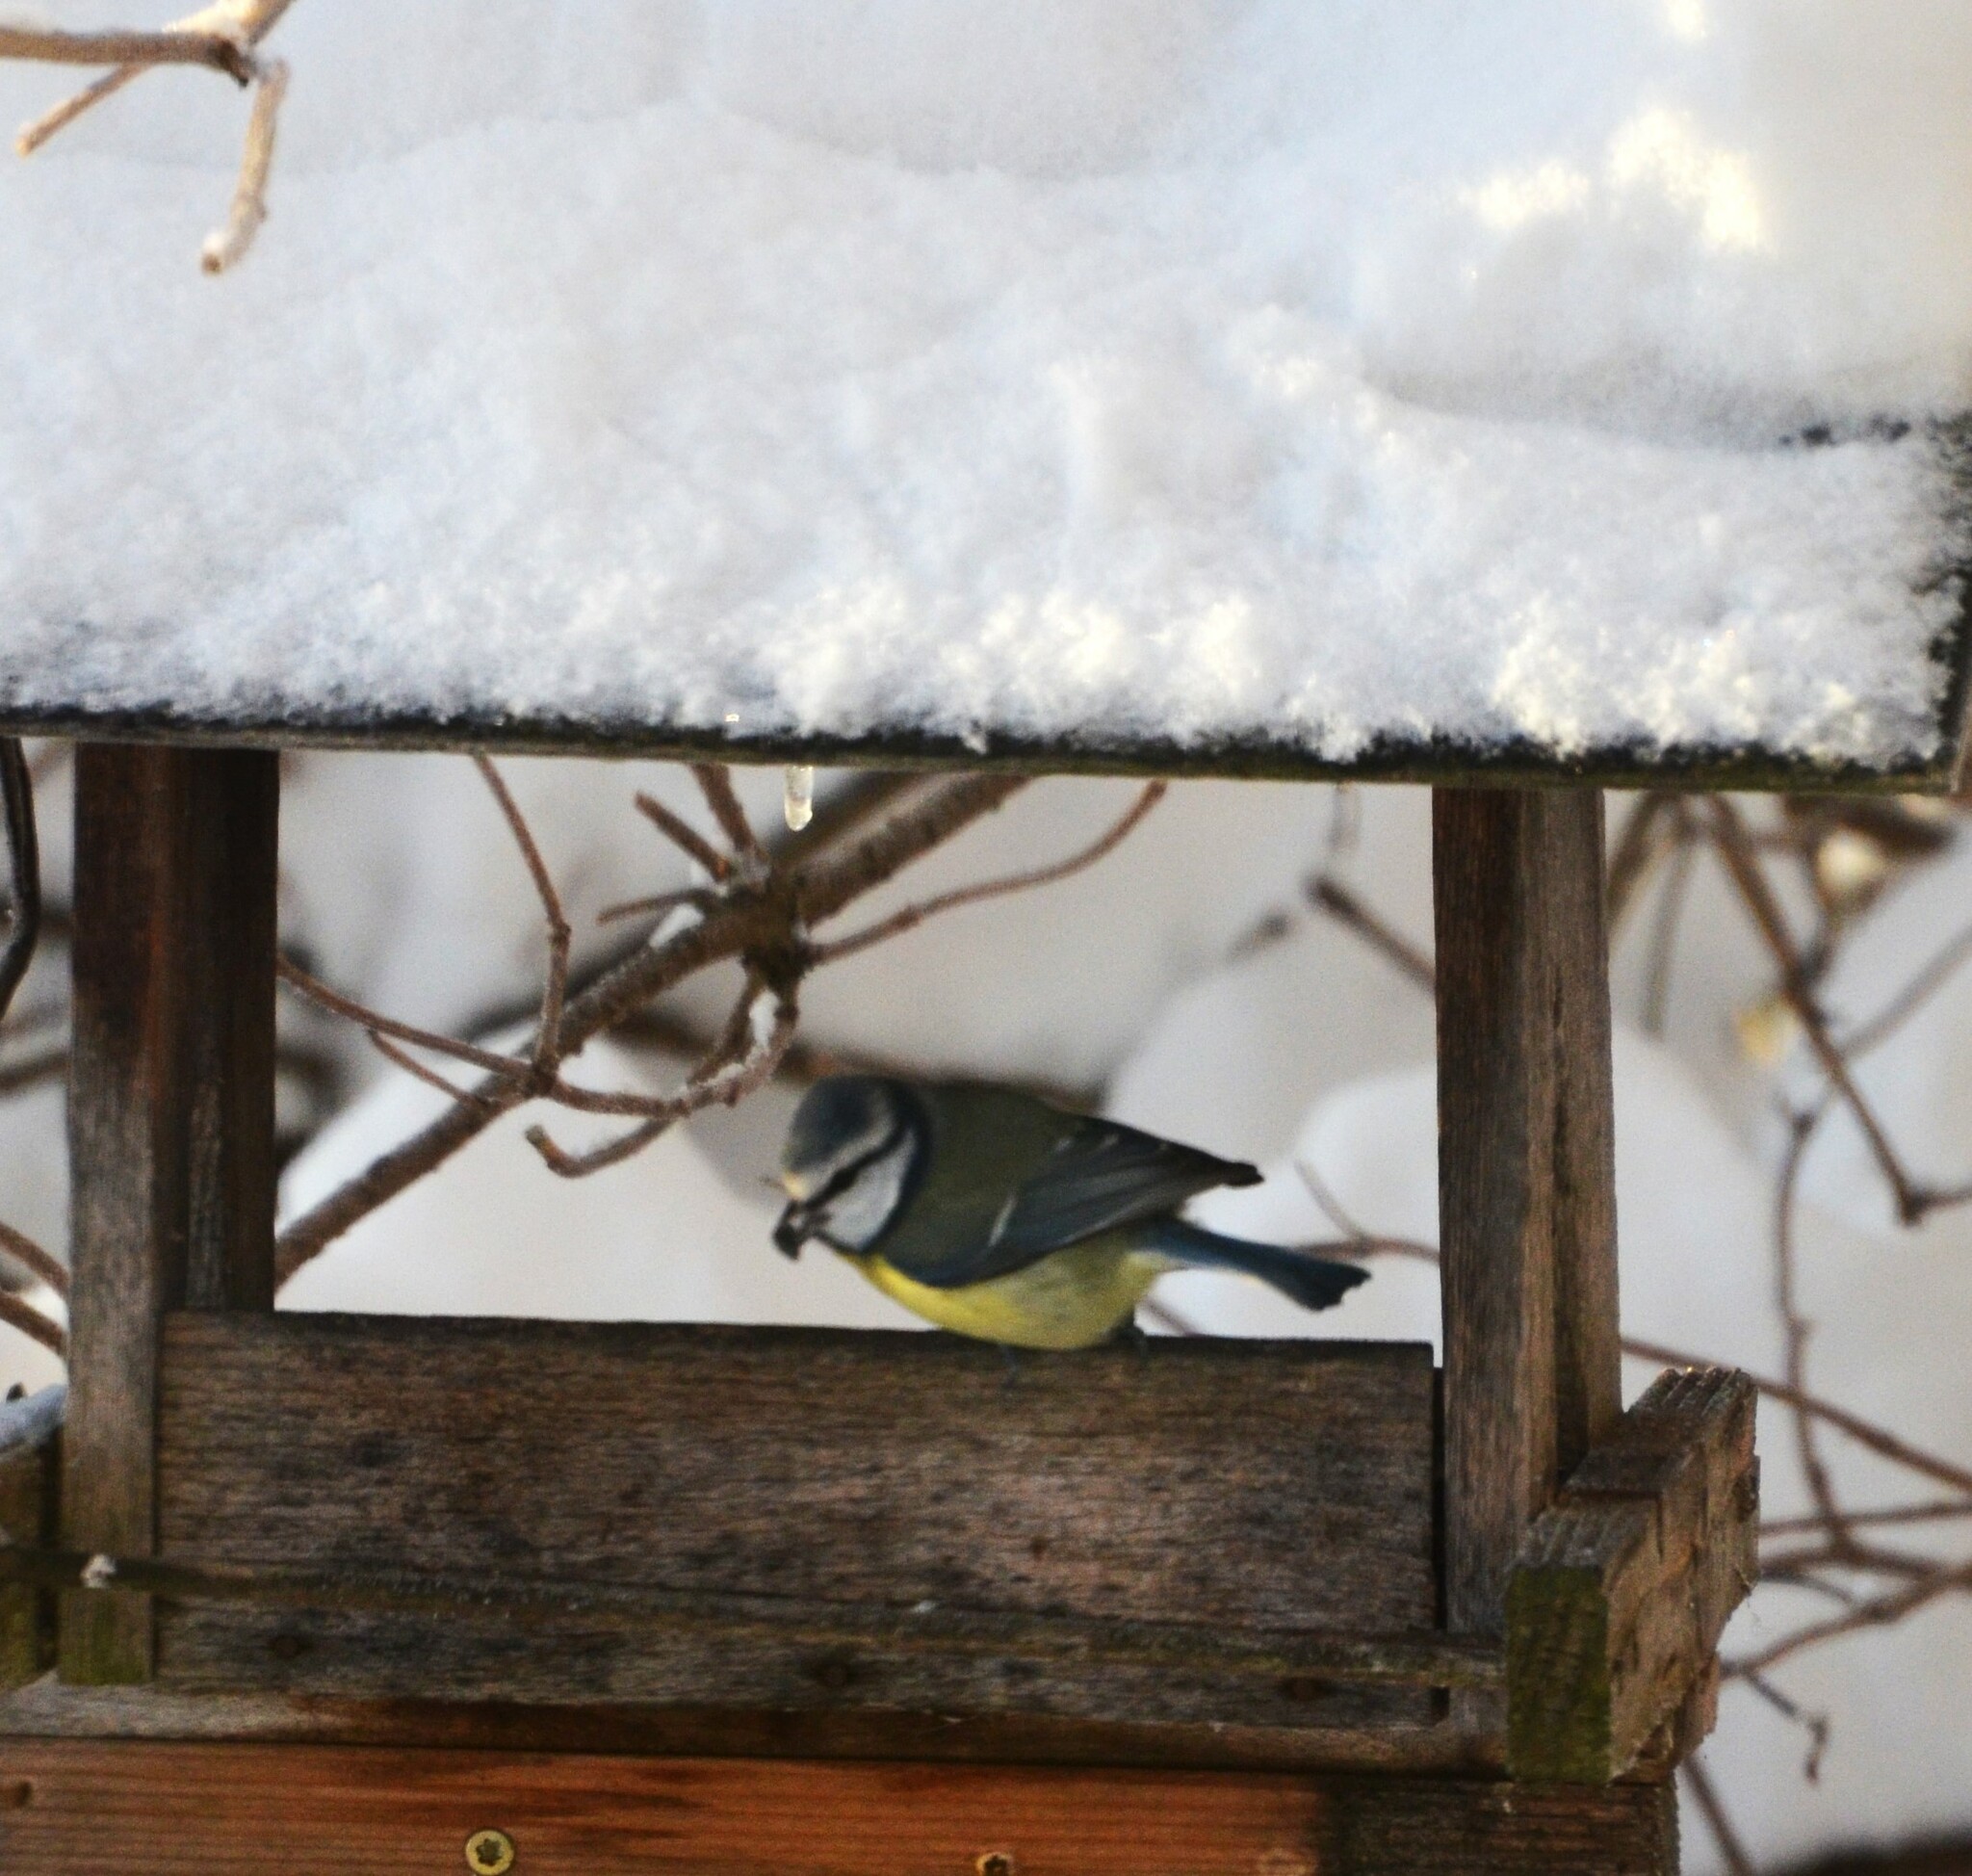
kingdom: Animalia
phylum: Chordata
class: Aves
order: Passeriformes
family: Paridae
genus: Cyanistes
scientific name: Cyanistes caeruleus
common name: Eurasian blue tit
